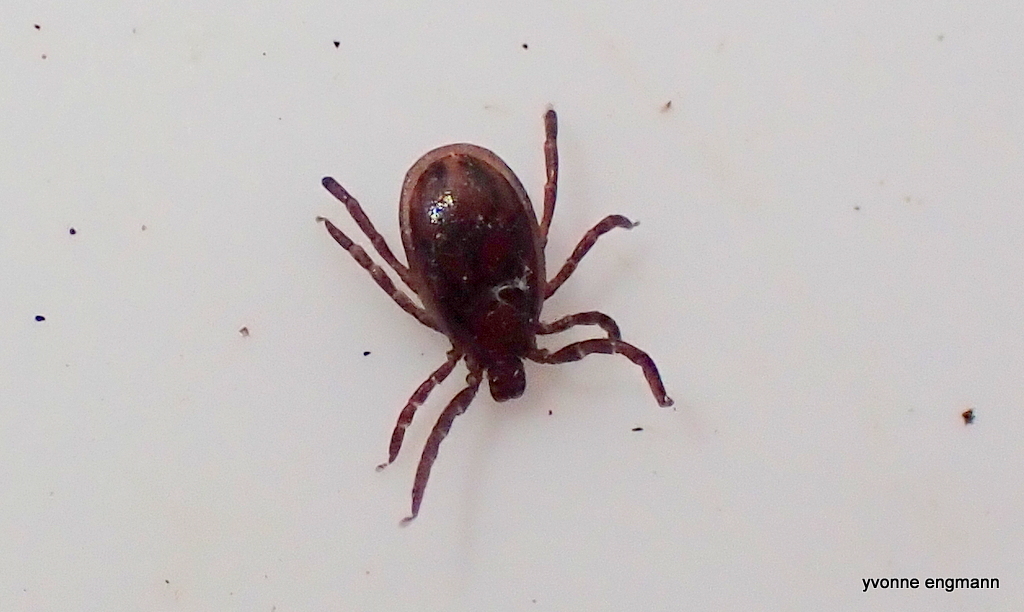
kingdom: Animalia
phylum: Arthropoda
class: Arachnida
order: Ixodida
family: Ixodidae
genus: Ixodes
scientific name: Ixodes ricinus
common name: Castor bean tick
